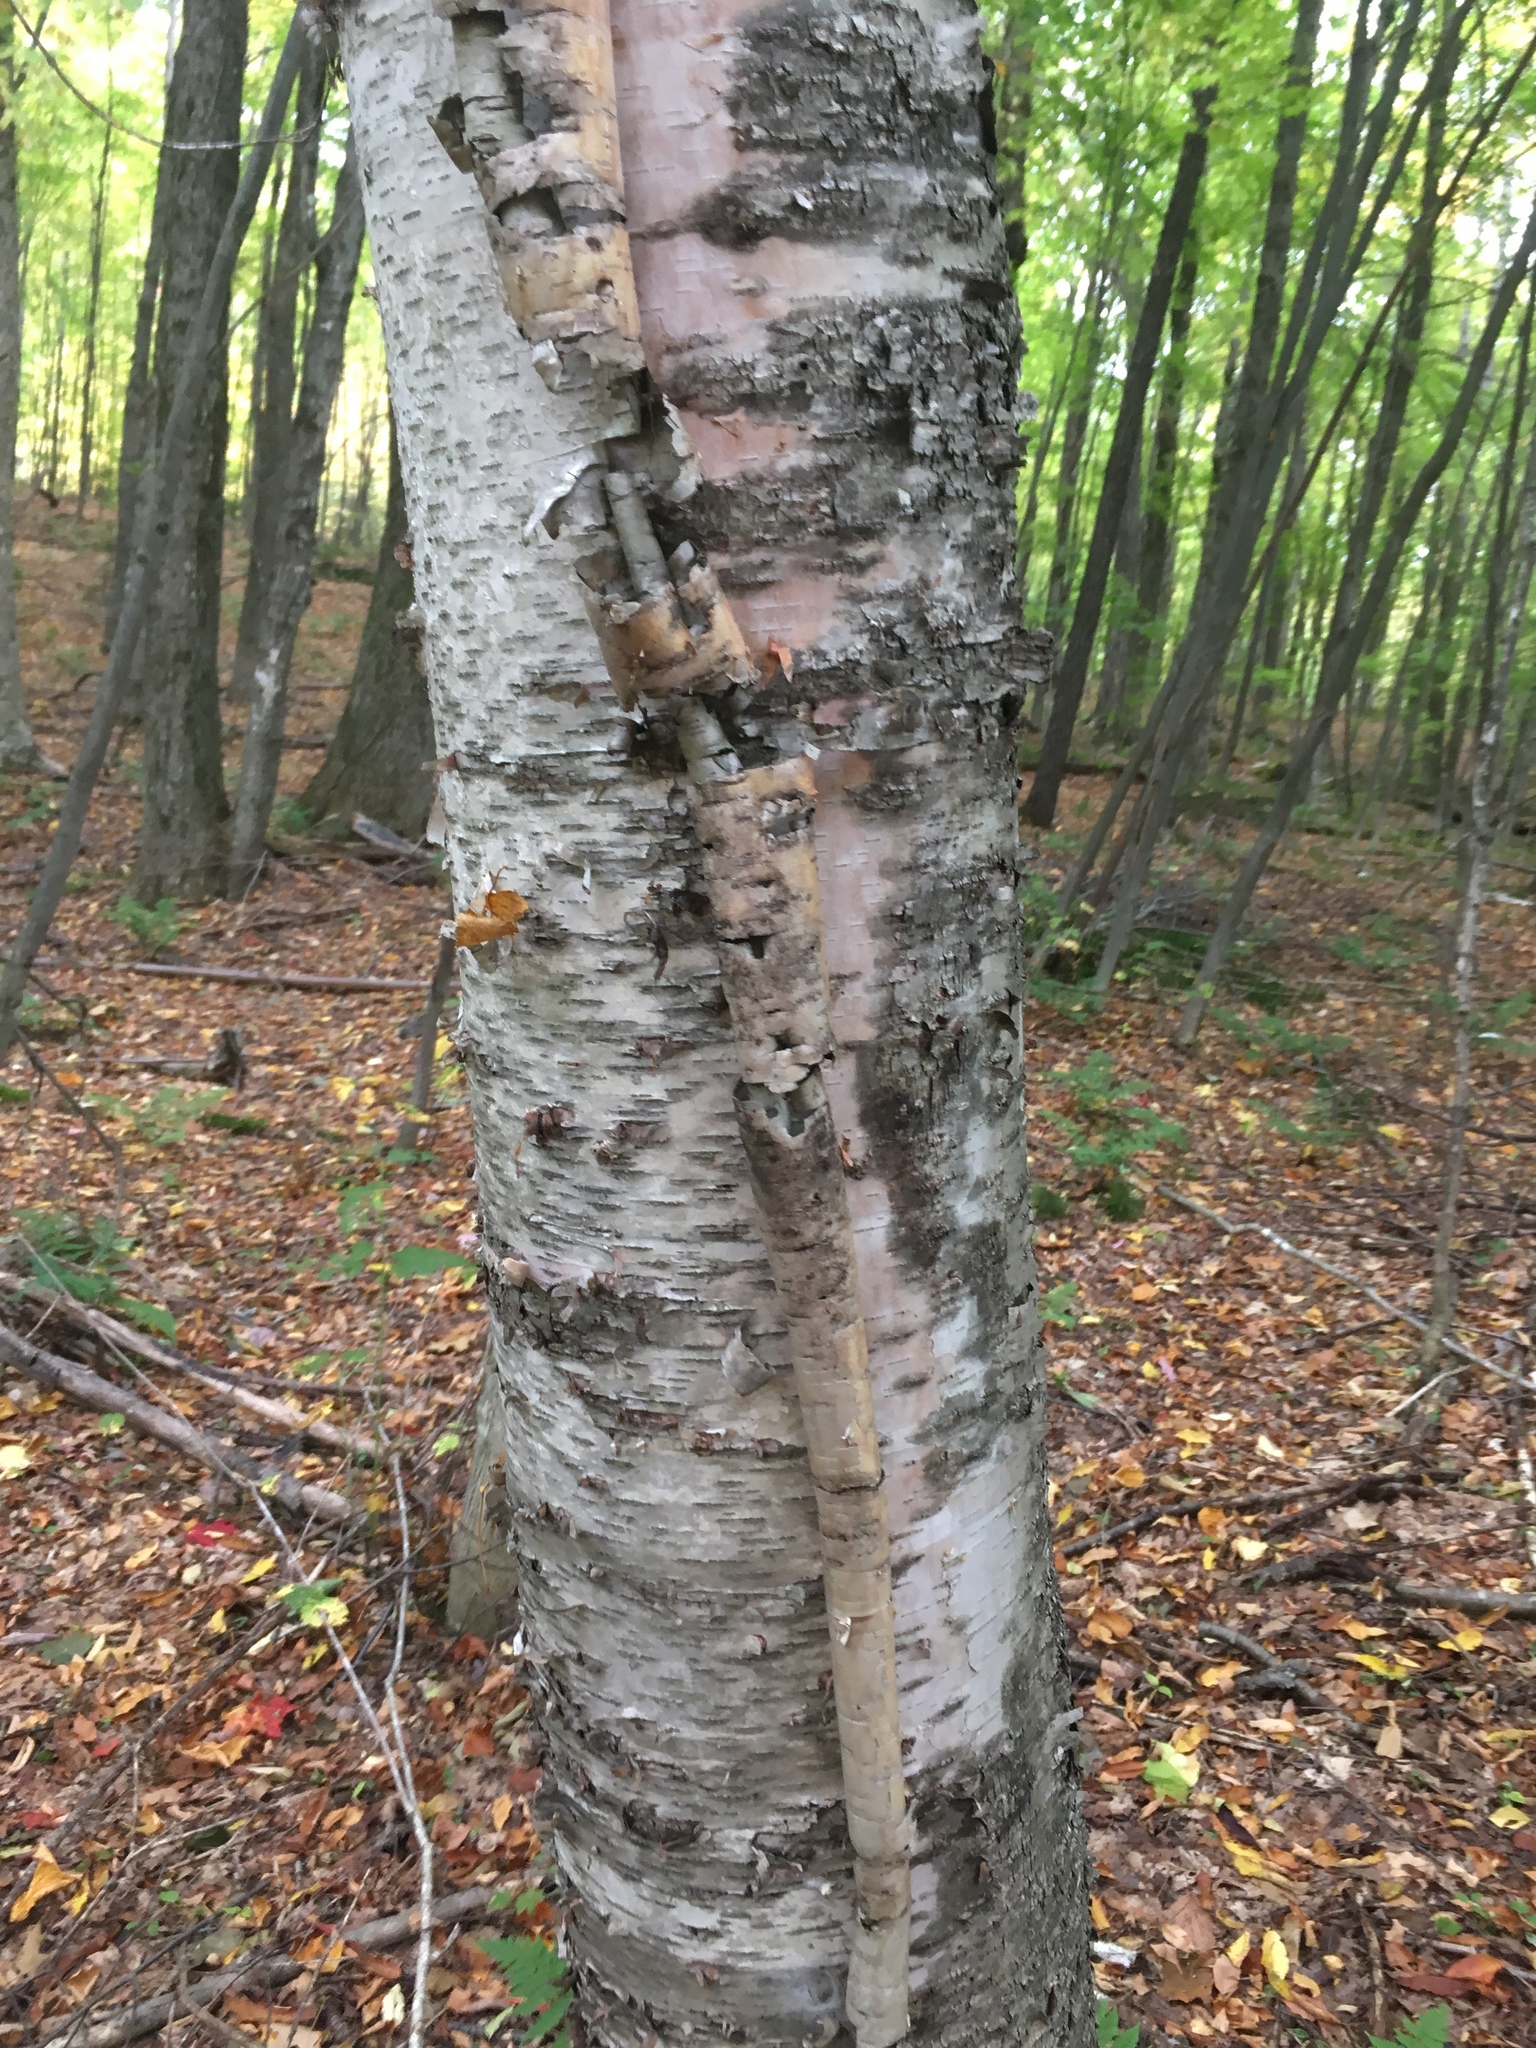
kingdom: Plantae
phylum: Tracheophyta
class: Magnoliopsida
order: Fagales
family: Betulaceae
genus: Betula
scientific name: Betula papyrifera
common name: Paper birch
